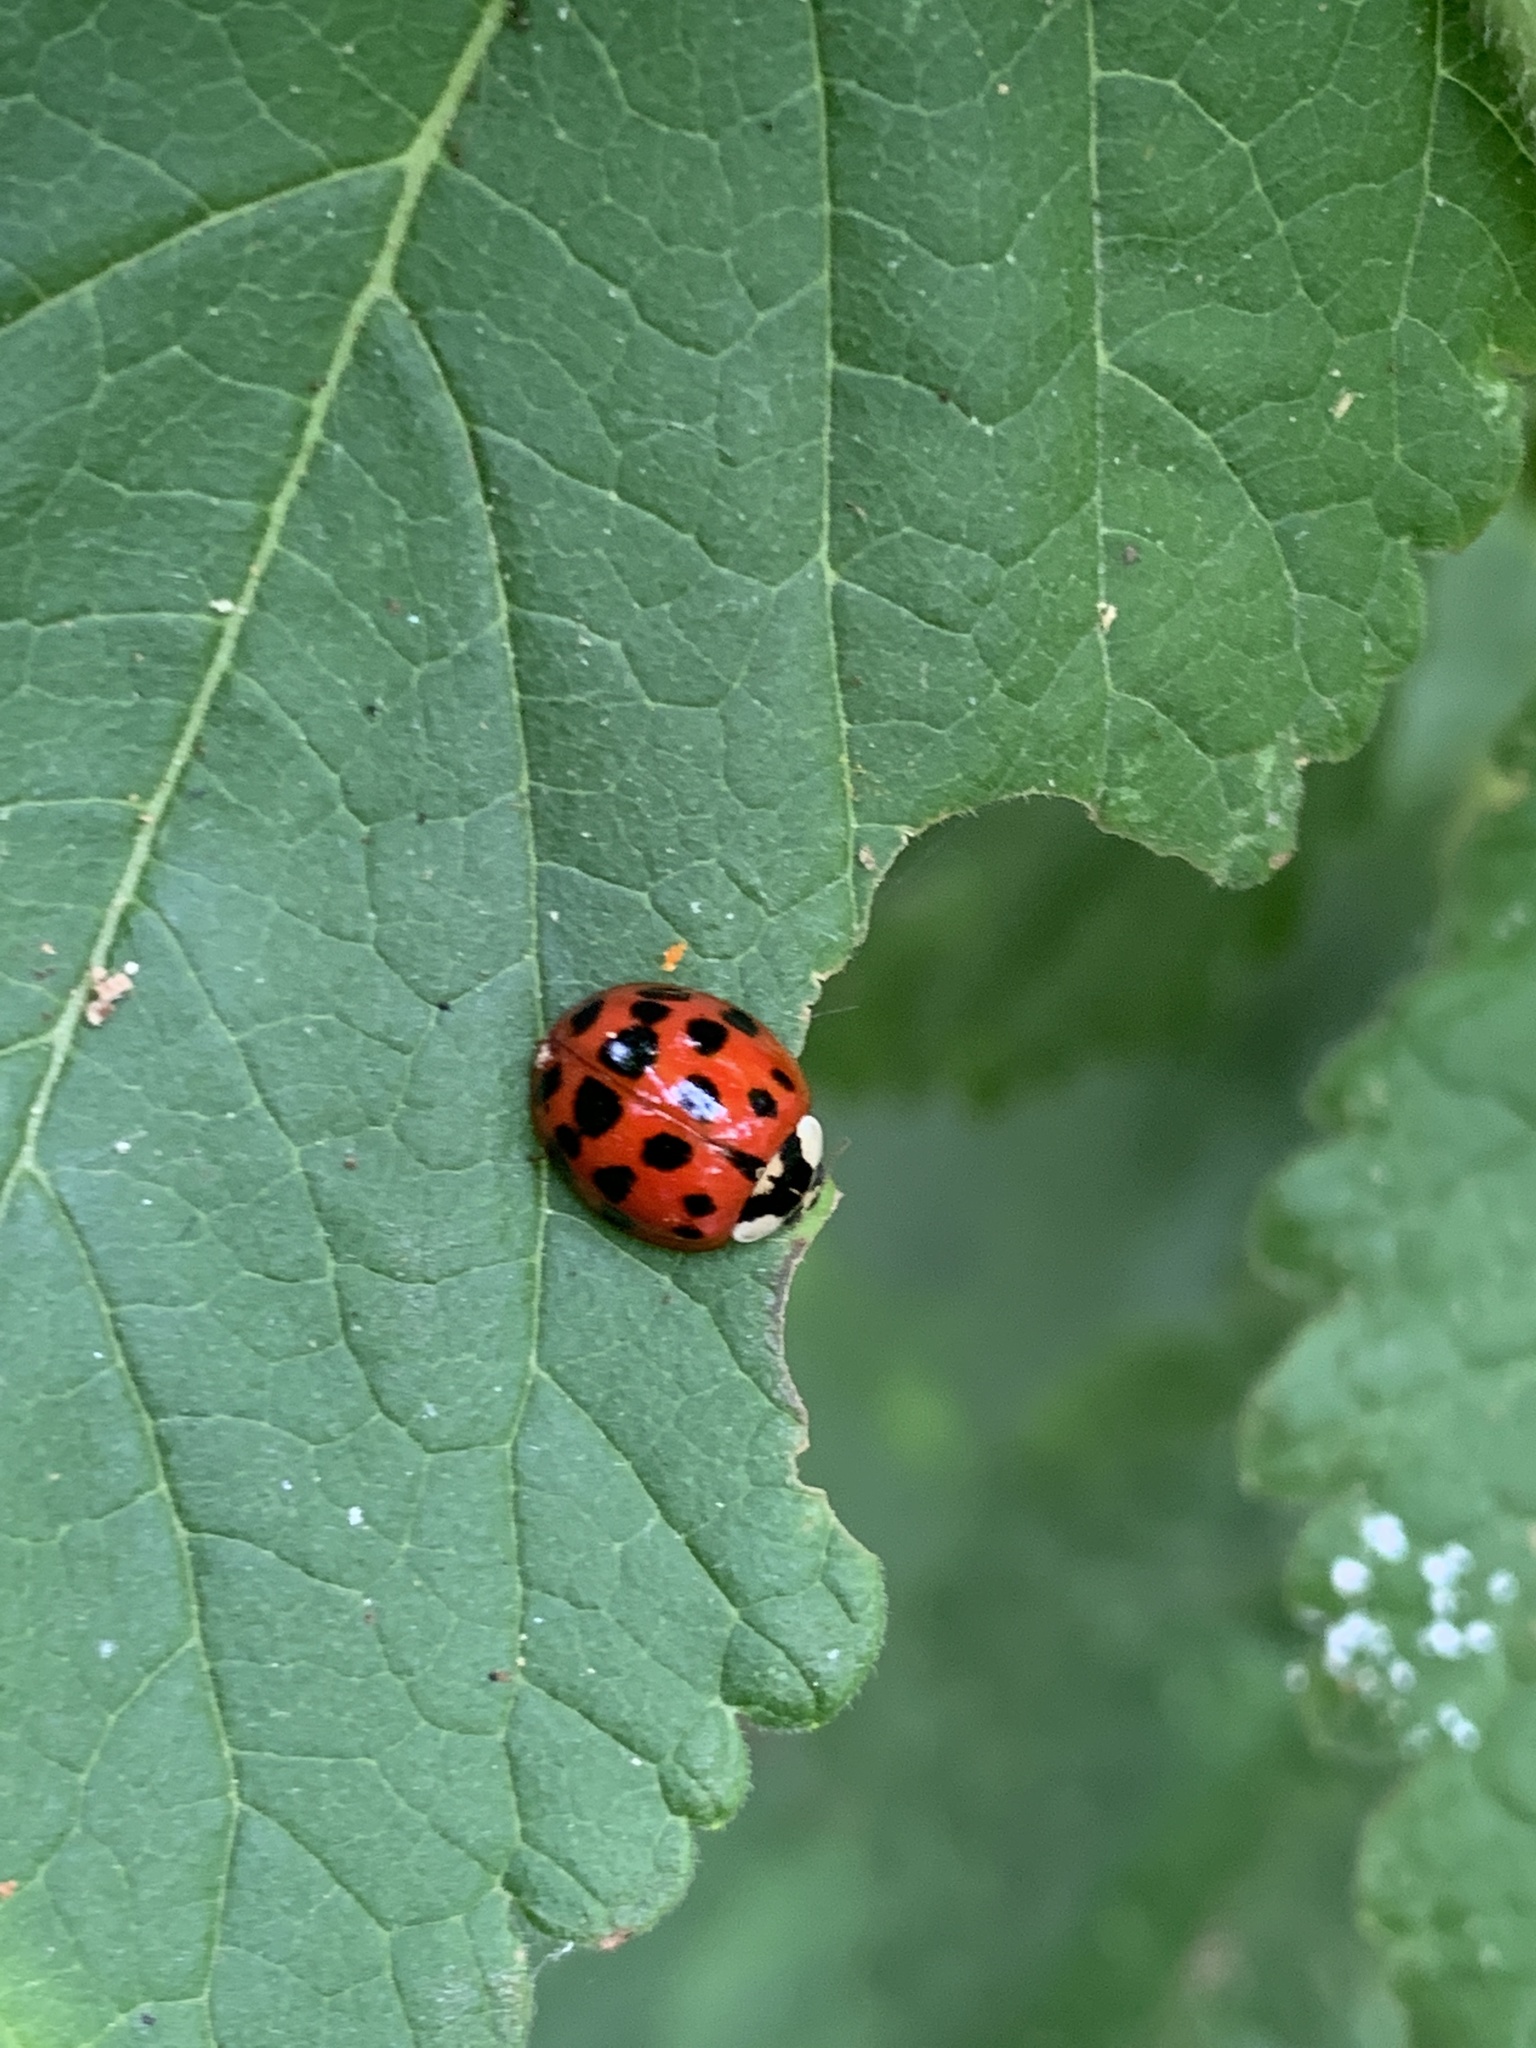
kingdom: Animalia
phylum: Arthropoda
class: Insecta
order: Coleoptera
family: Coccinellidae
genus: Harmonia
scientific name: Harmonia axyridis
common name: Harlequin ladybird
